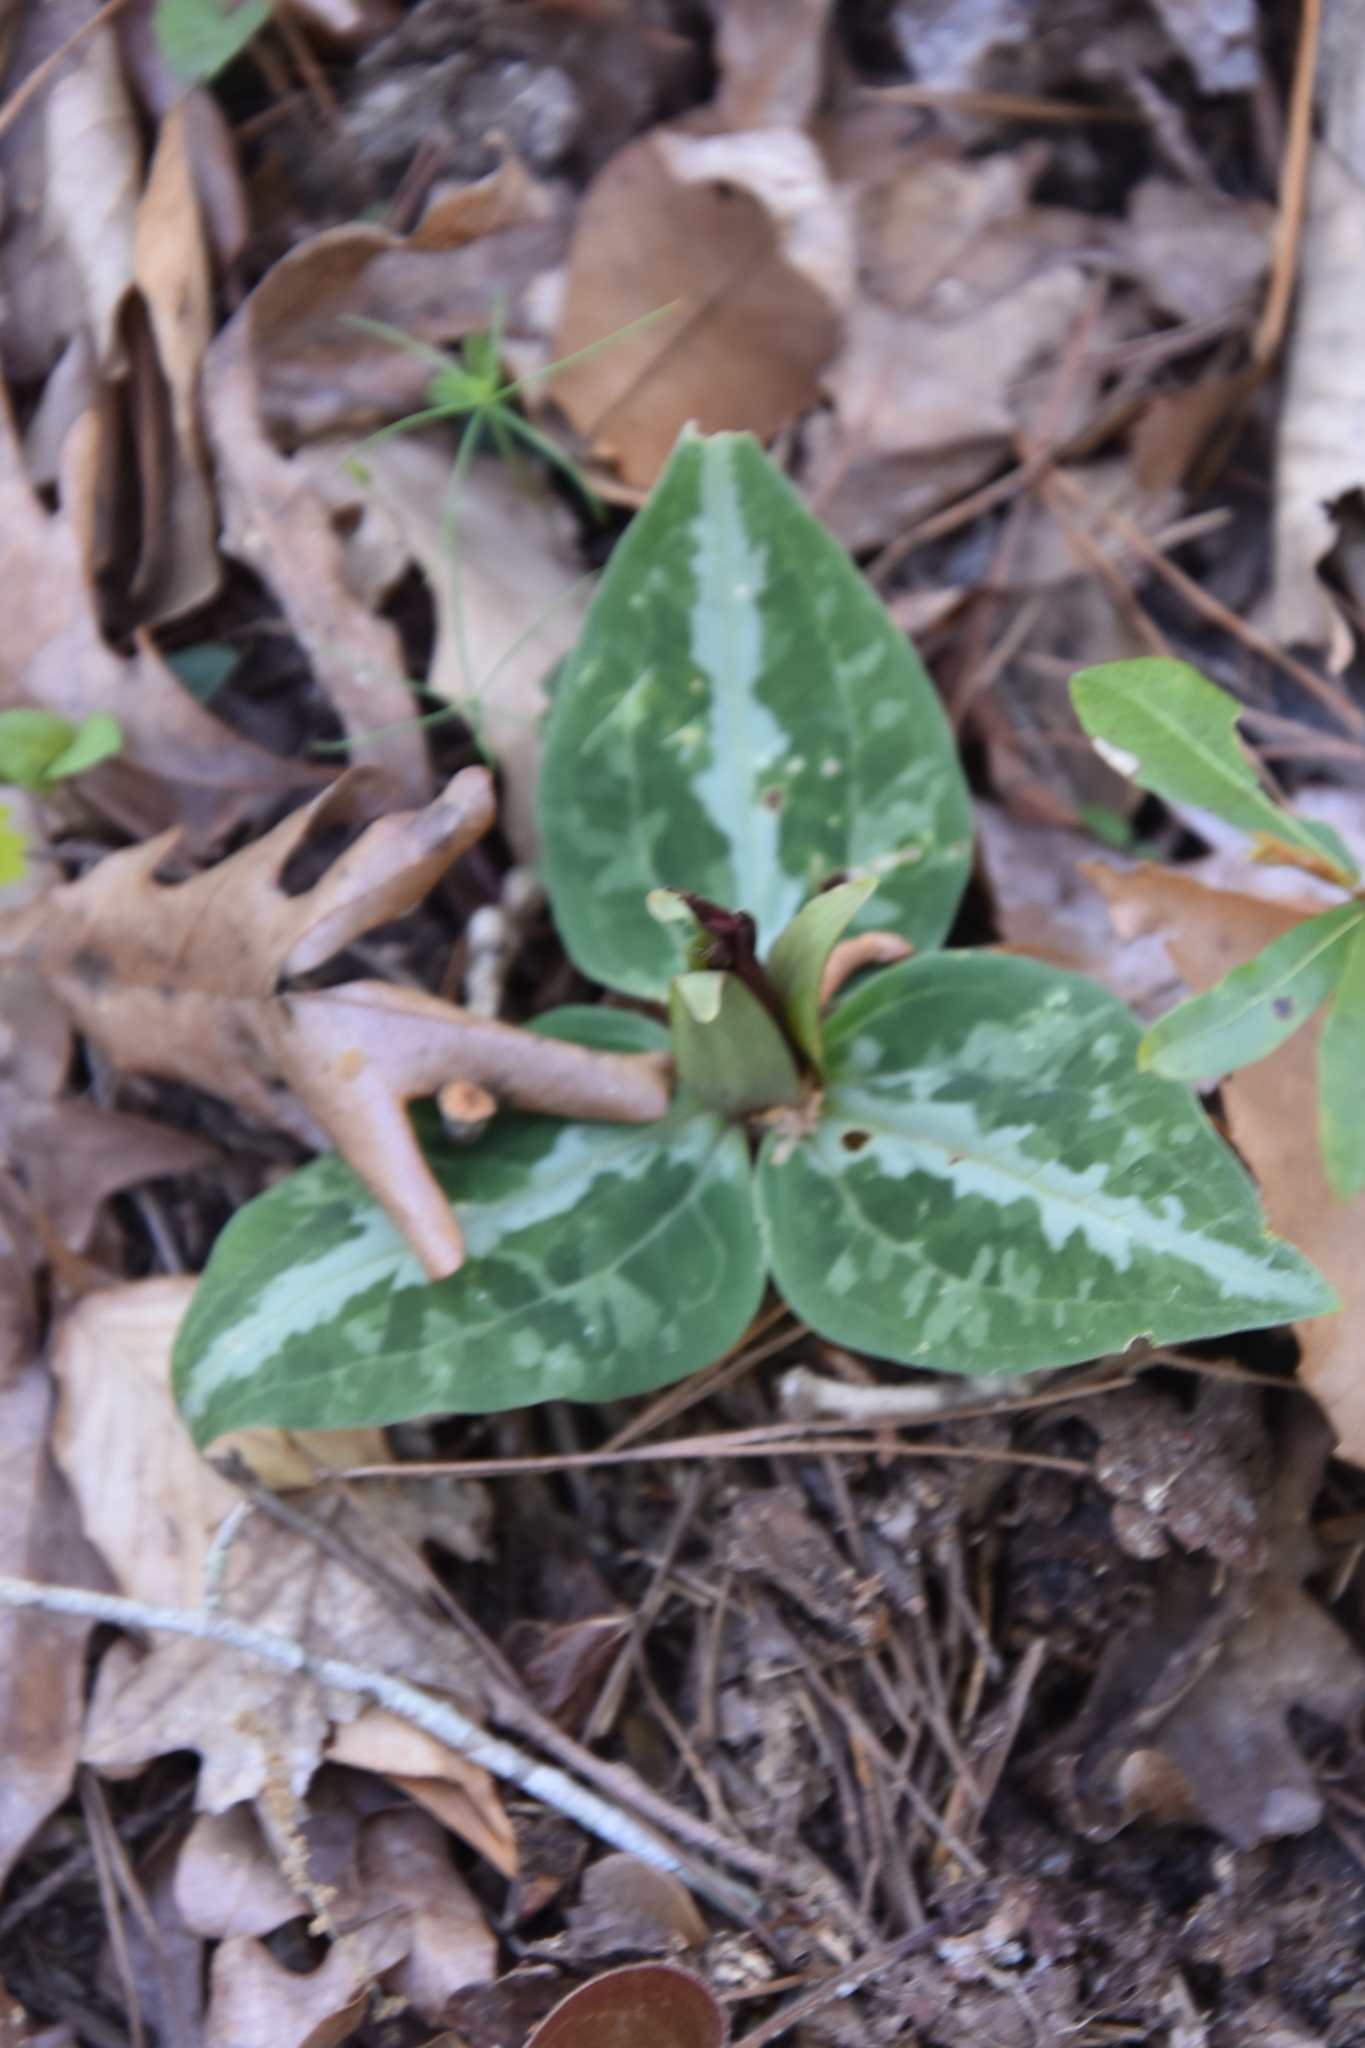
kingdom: Plantae
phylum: Tracheophyta
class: Liliopsida
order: Liliales
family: Melanthiaceae
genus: Trillium
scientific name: Trillium underwoodii
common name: Longbract wakerobin
